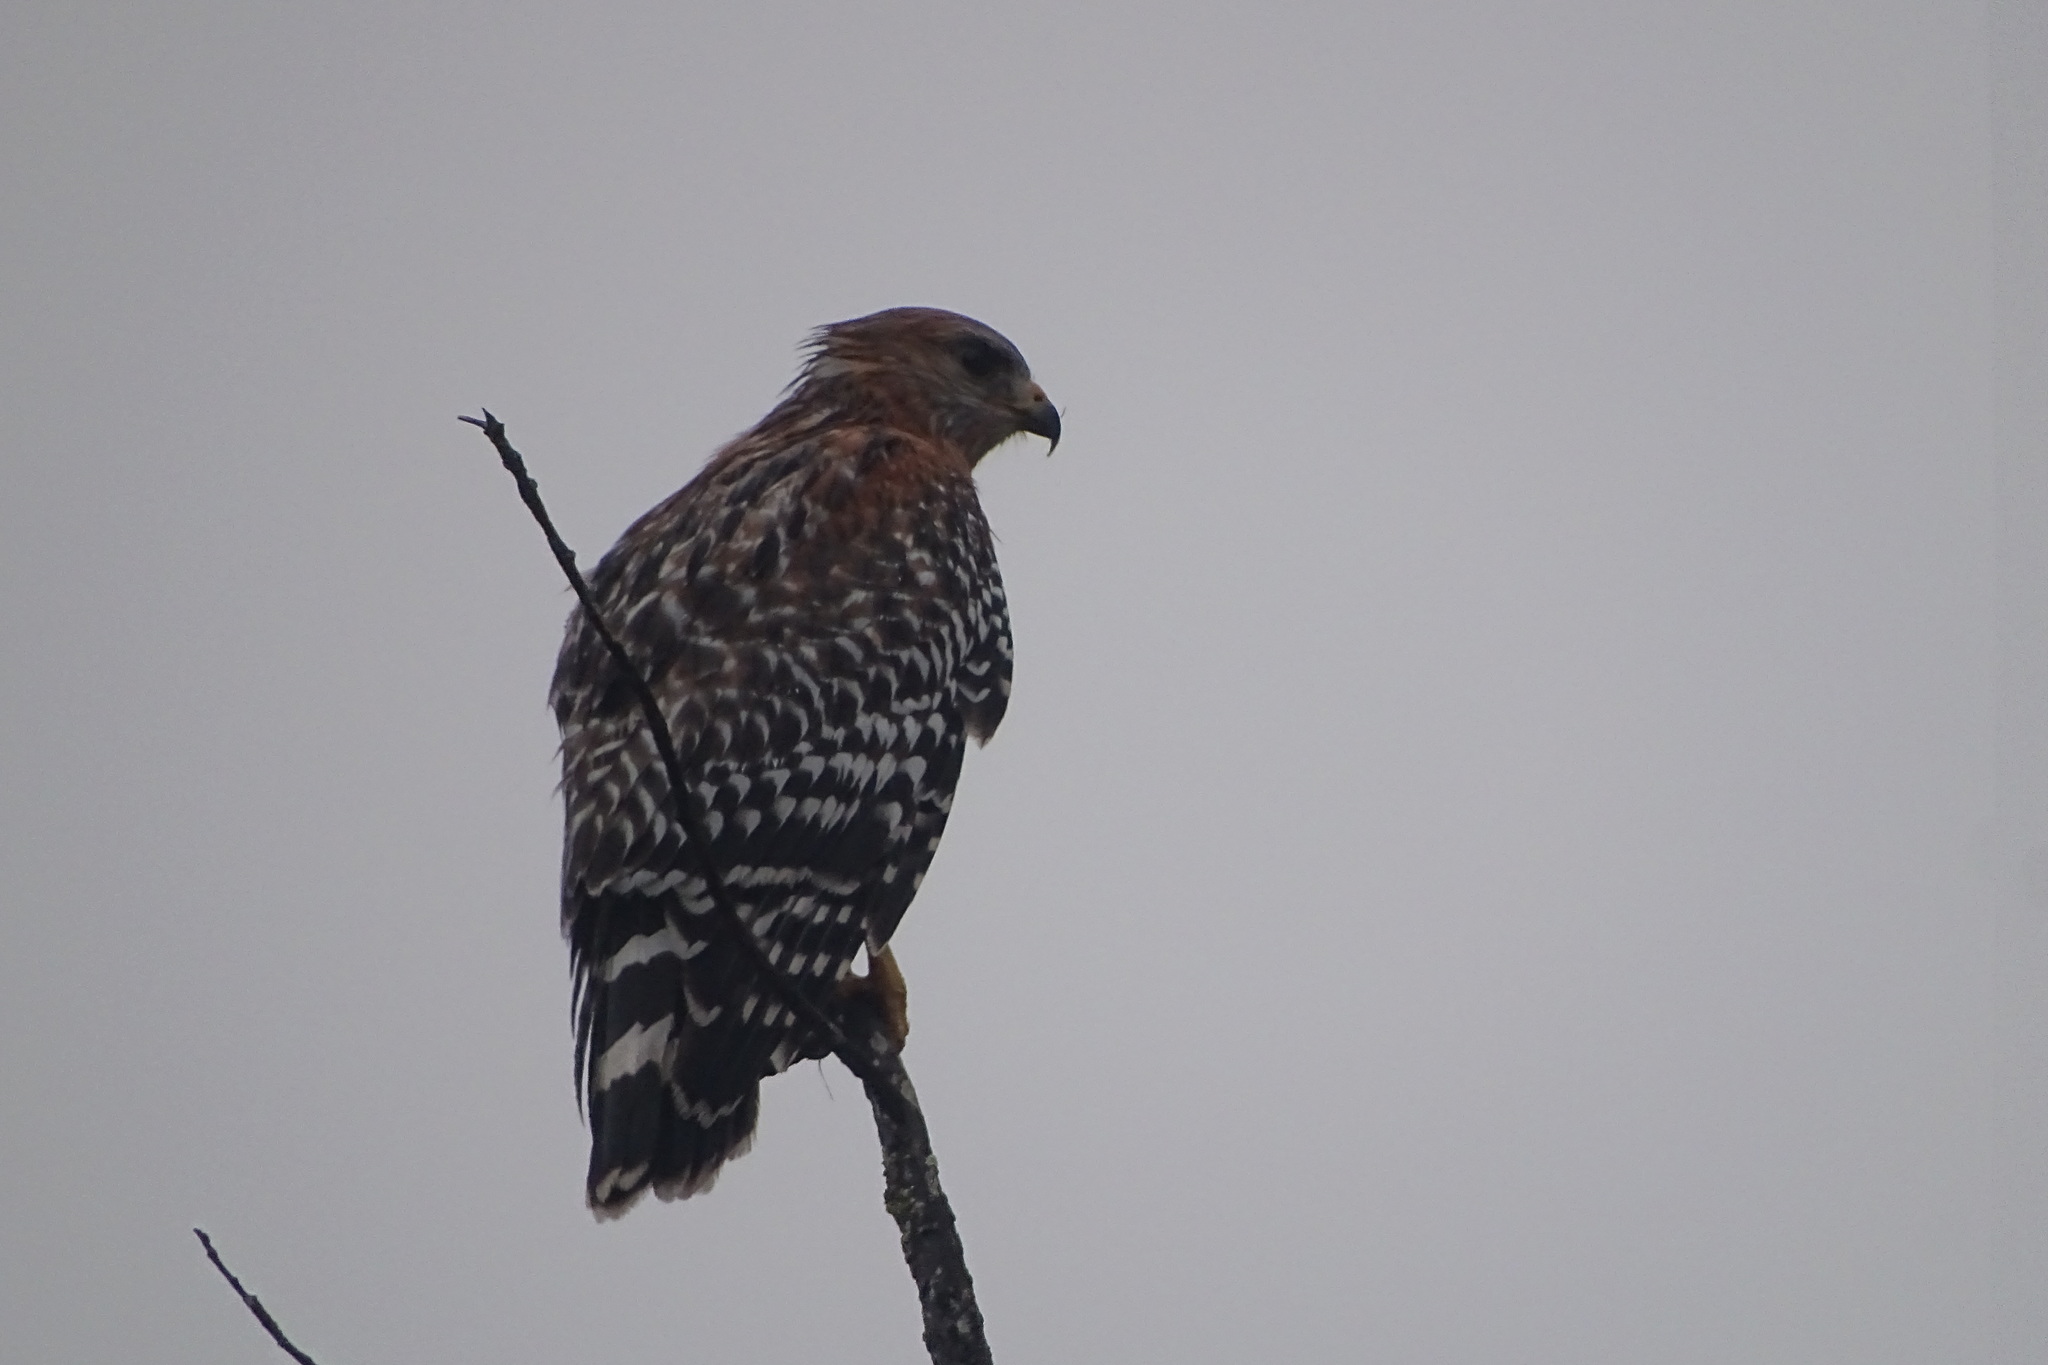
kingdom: Animalia
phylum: Chordata
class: Aves
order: Accipitriformes
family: Accipitridae
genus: Buteo
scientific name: Buteo lineatus
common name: Red-shouldered hawk
